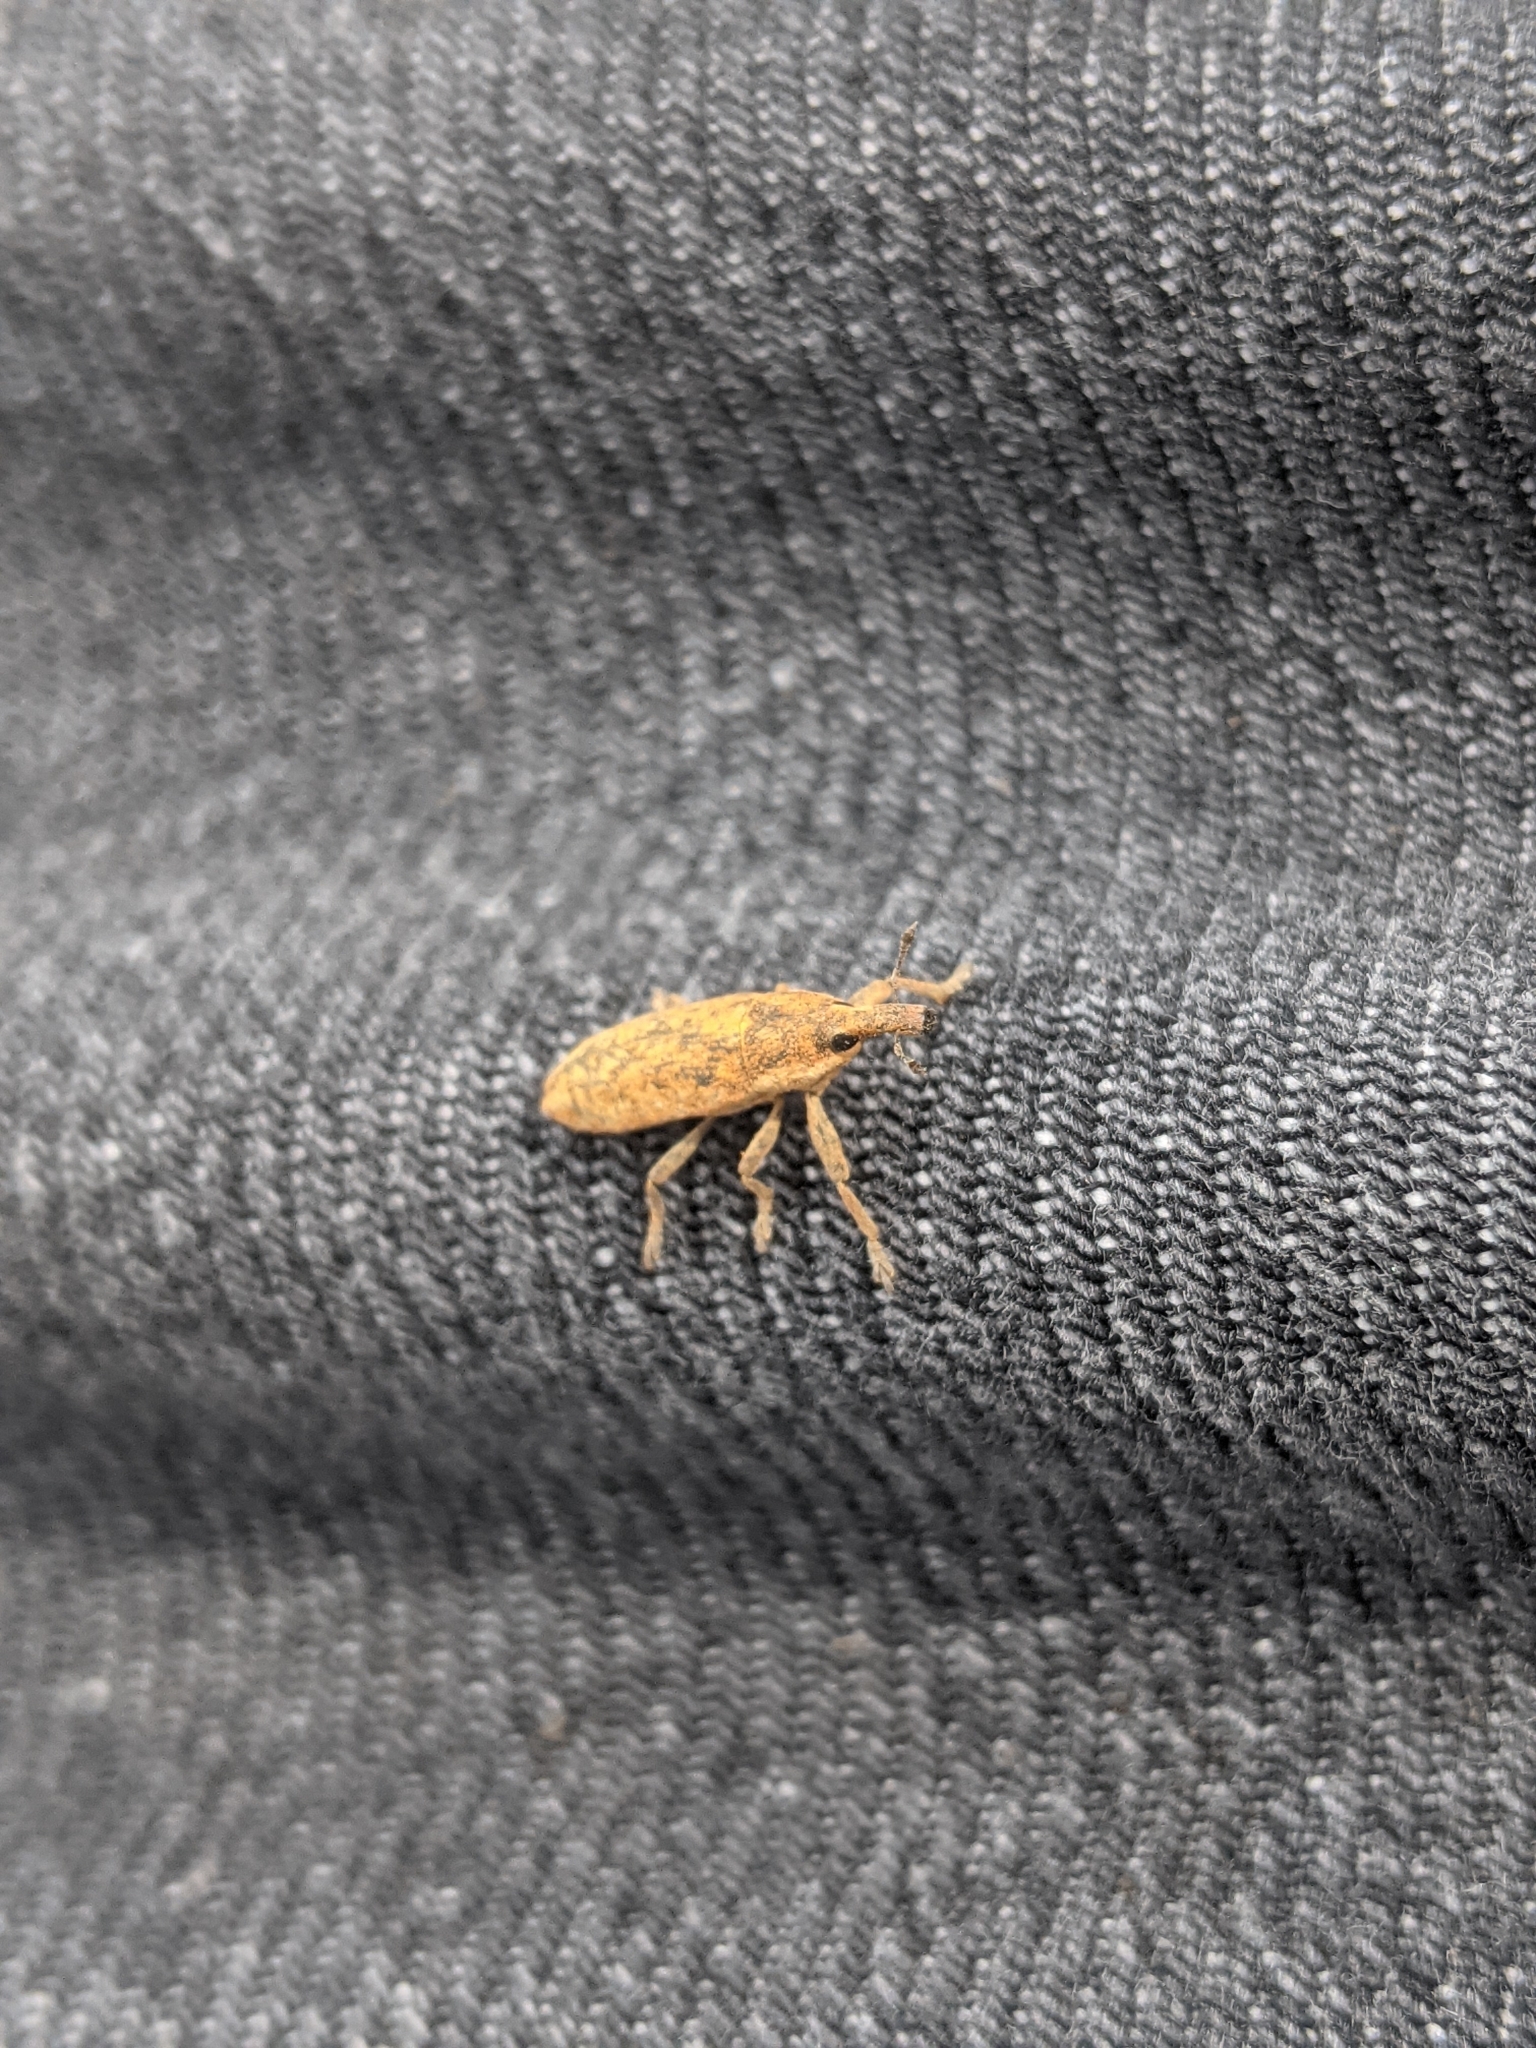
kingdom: Animalia
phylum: Arthropoda
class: Insecta
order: Coleoptera
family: Curculionidae
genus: Lixus
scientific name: Lixus subtilis
